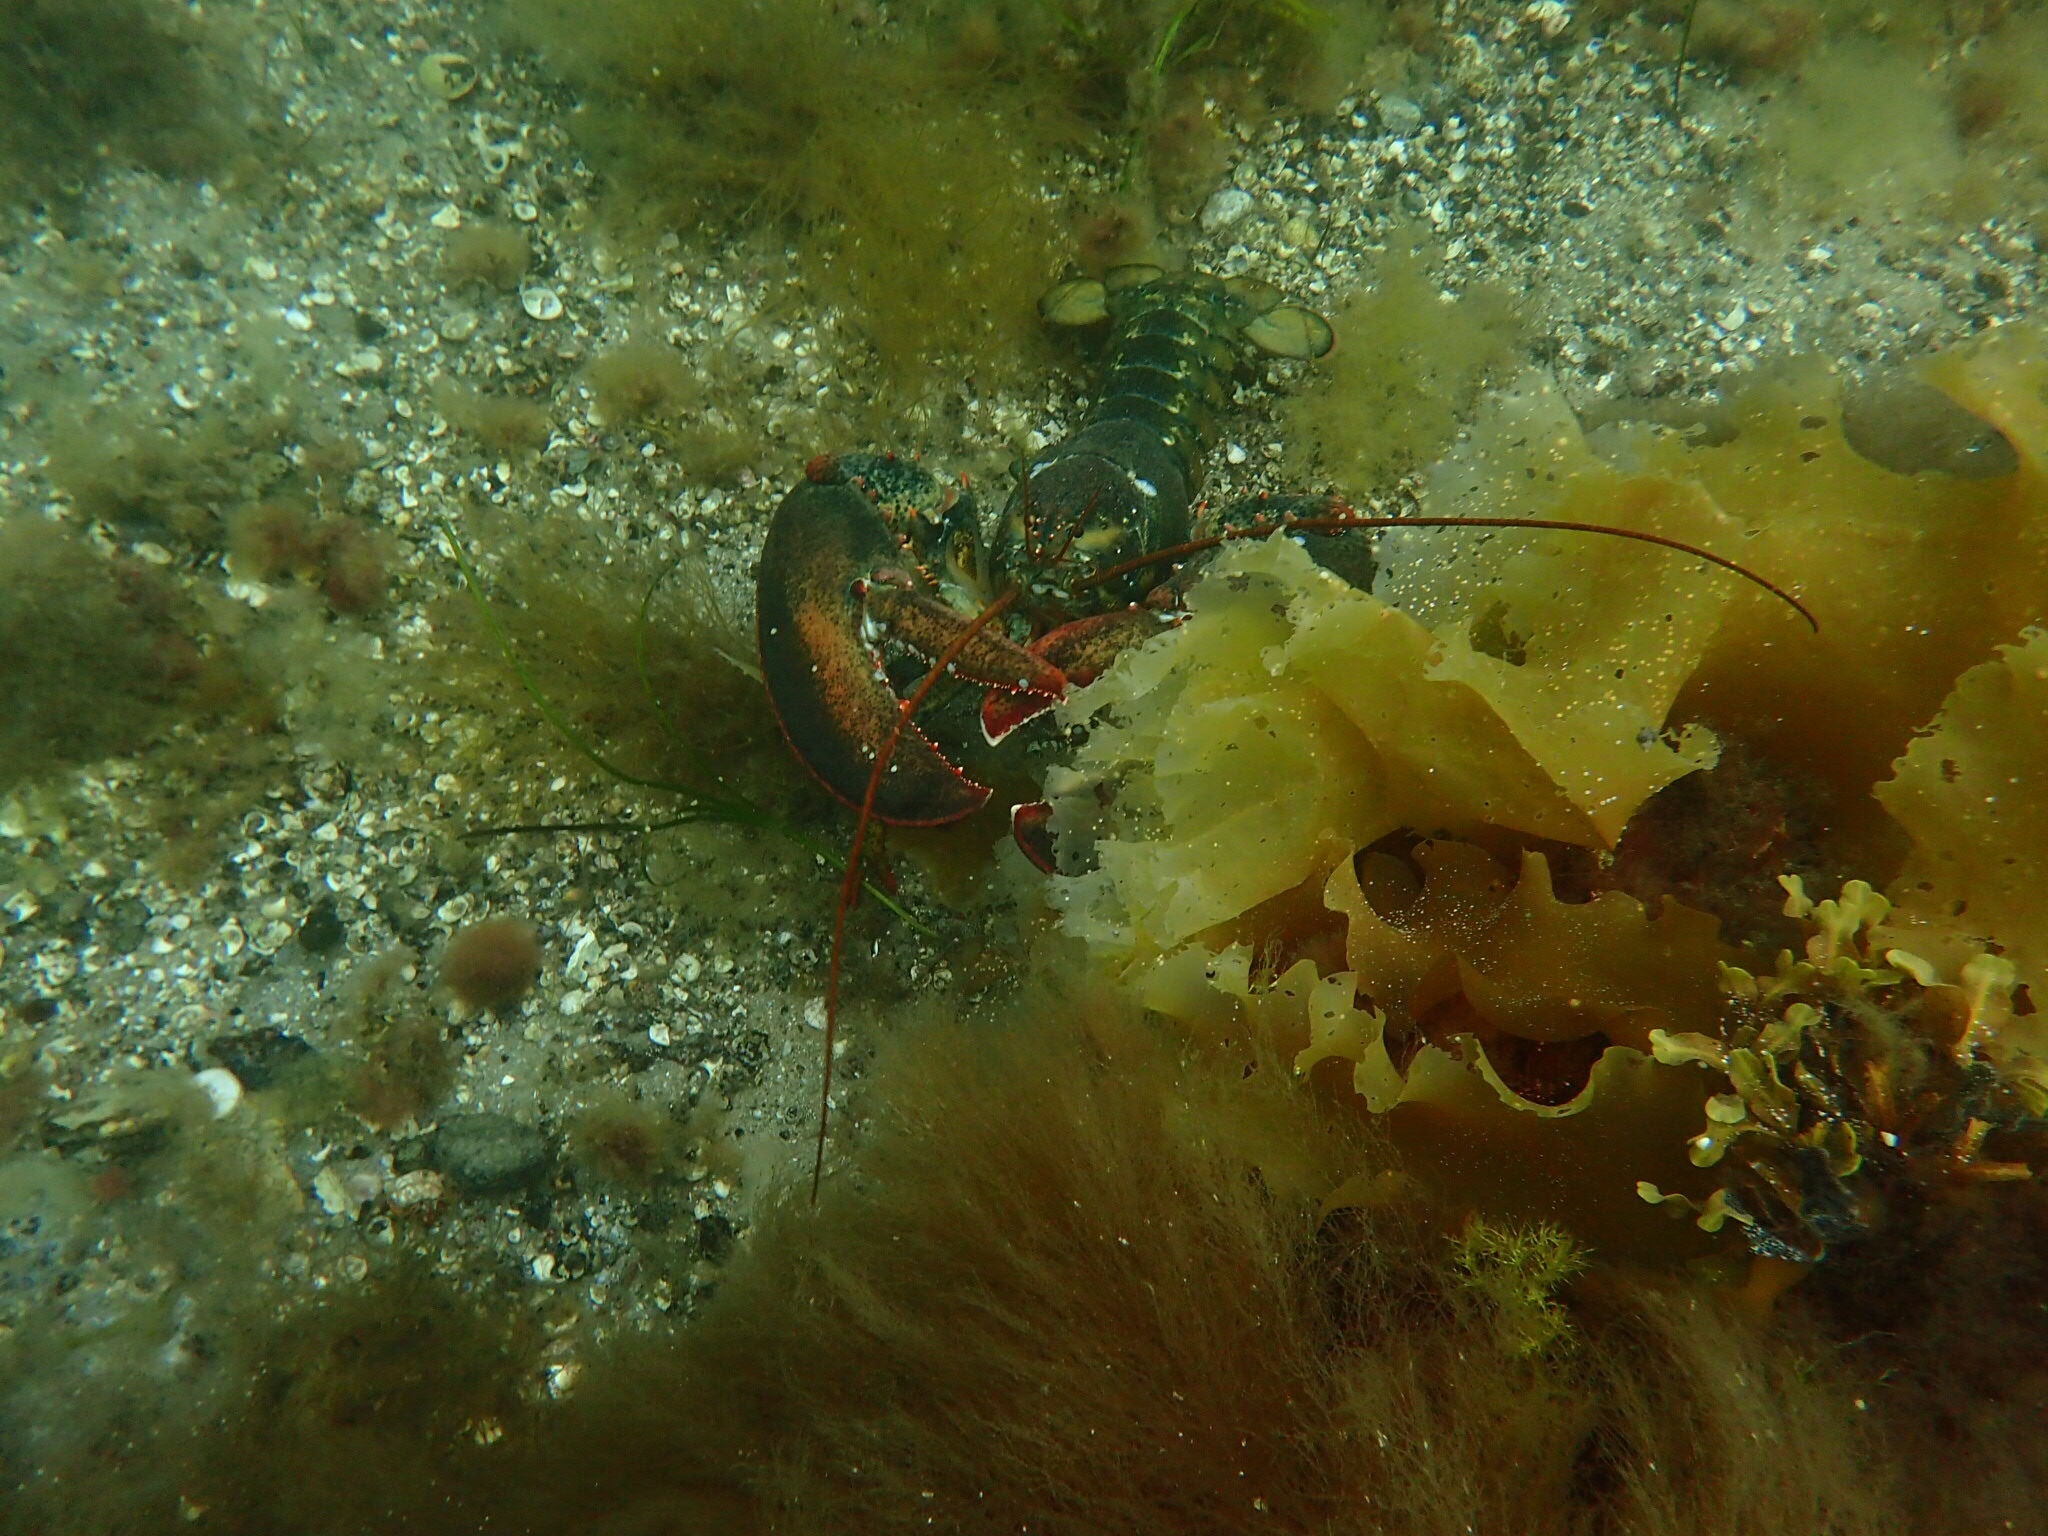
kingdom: Animalia
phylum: Arthropoda
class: Malacostraca
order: Decapoda
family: Nephropidae
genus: Homarus
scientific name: Homarus americanus
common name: American lobster
